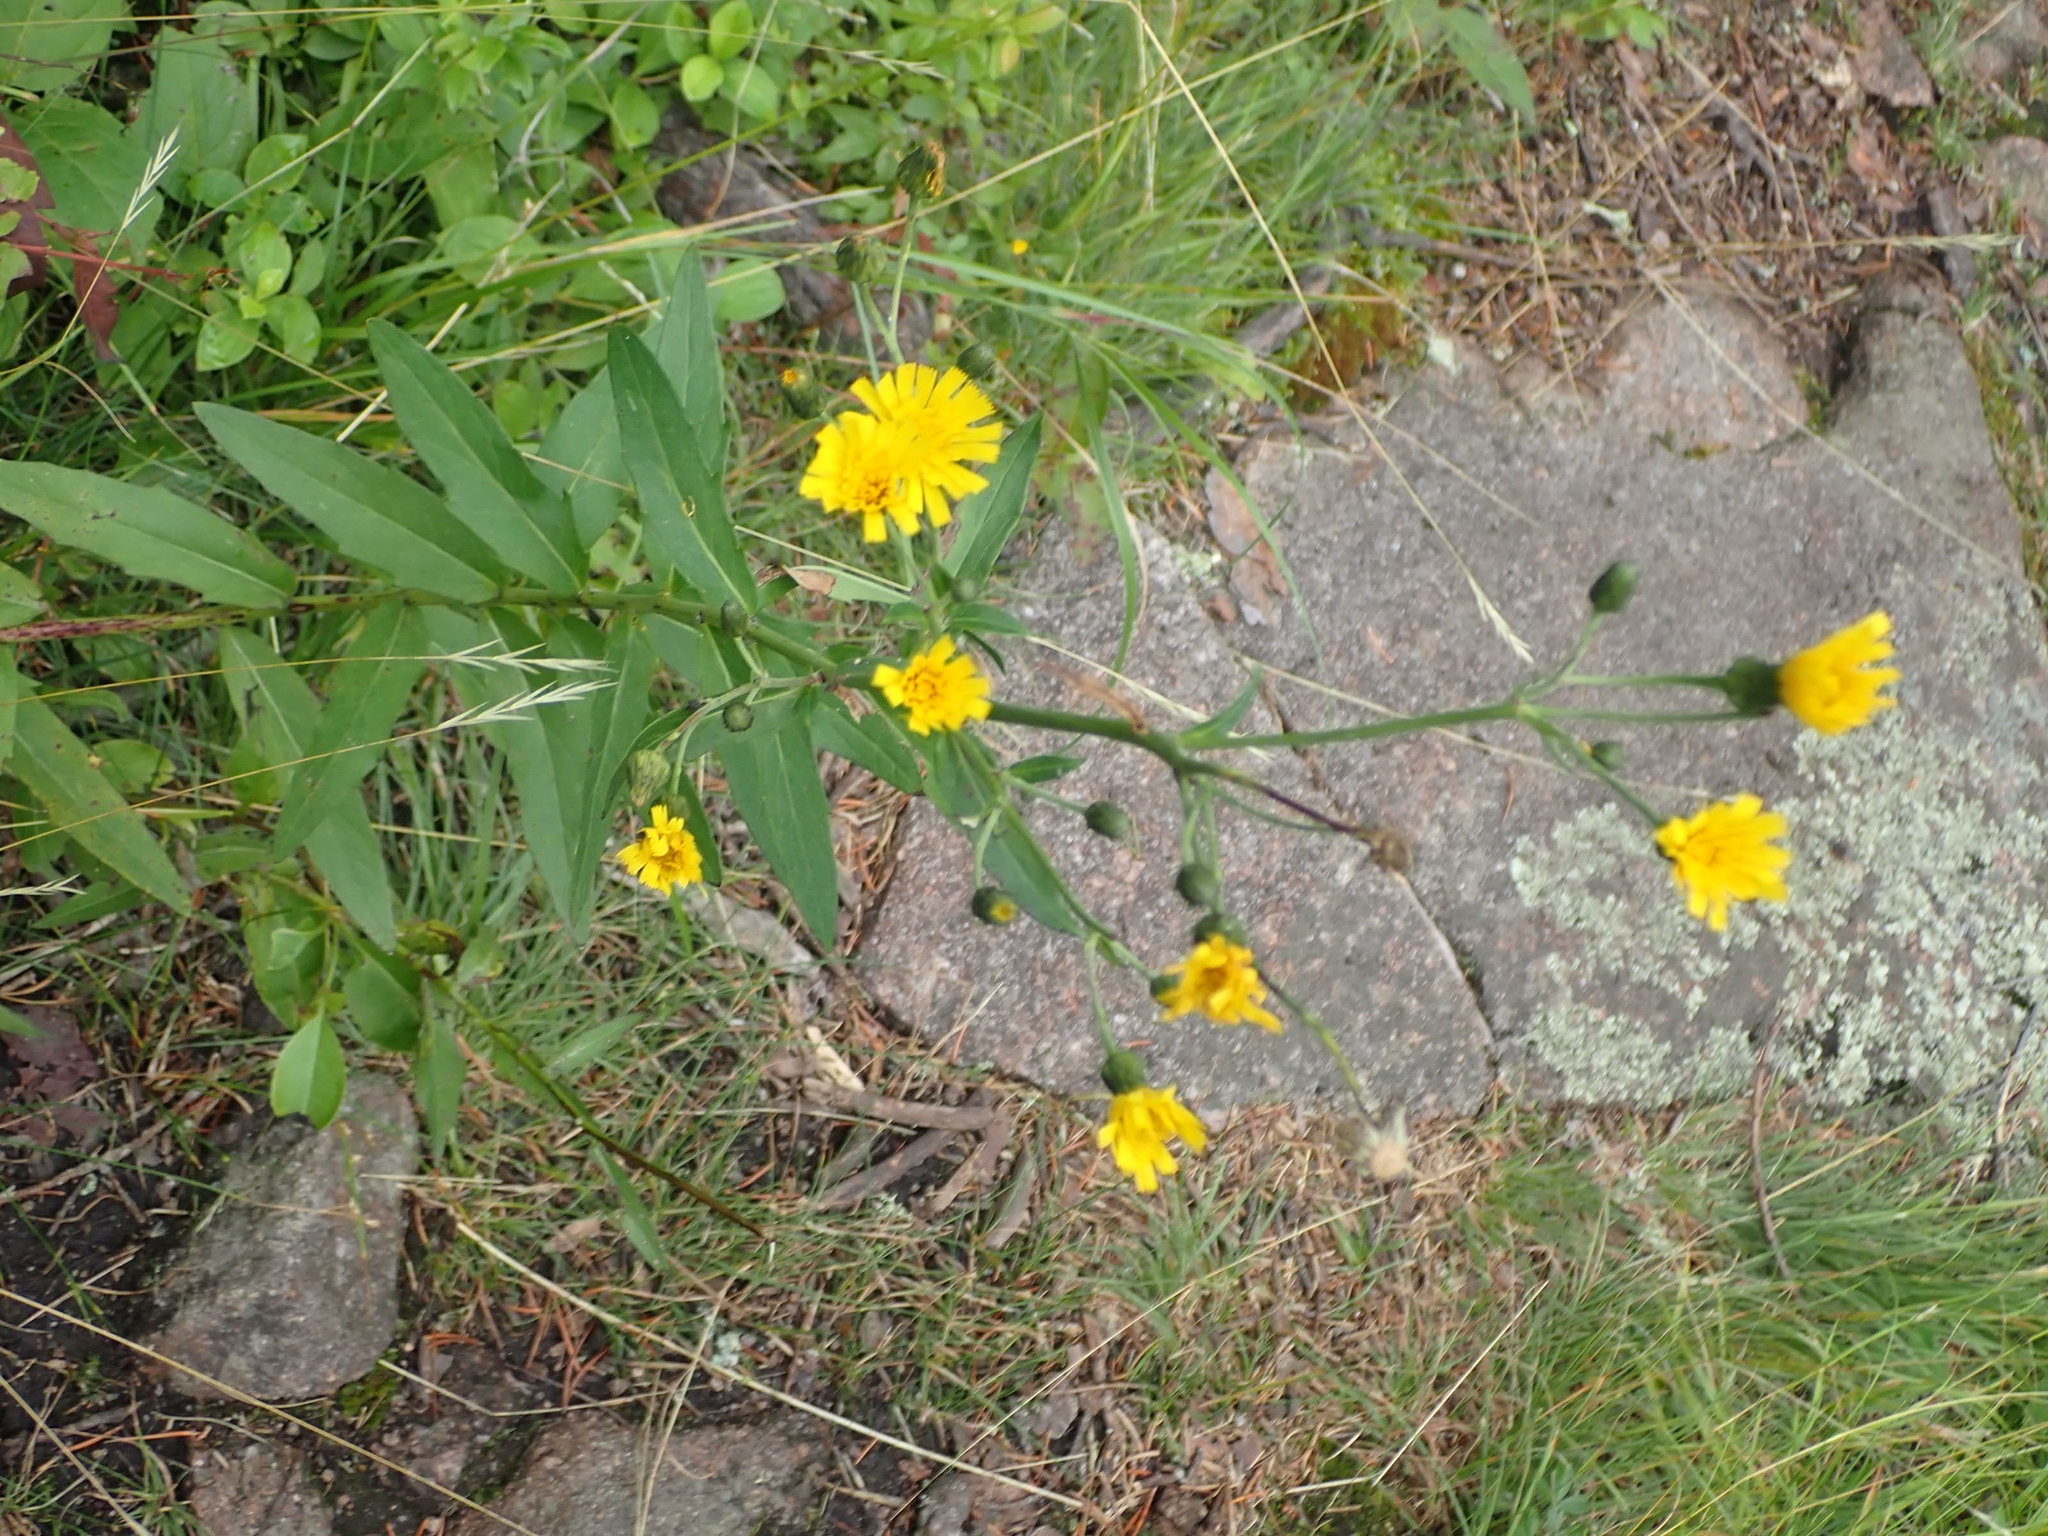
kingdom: Plantae
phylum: Tracheophyta
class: Magnoliopsida
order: Asterales
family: Asteraceae
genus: Hieracium
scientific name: Hieracium umbellatum
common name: Northern hawkweed
